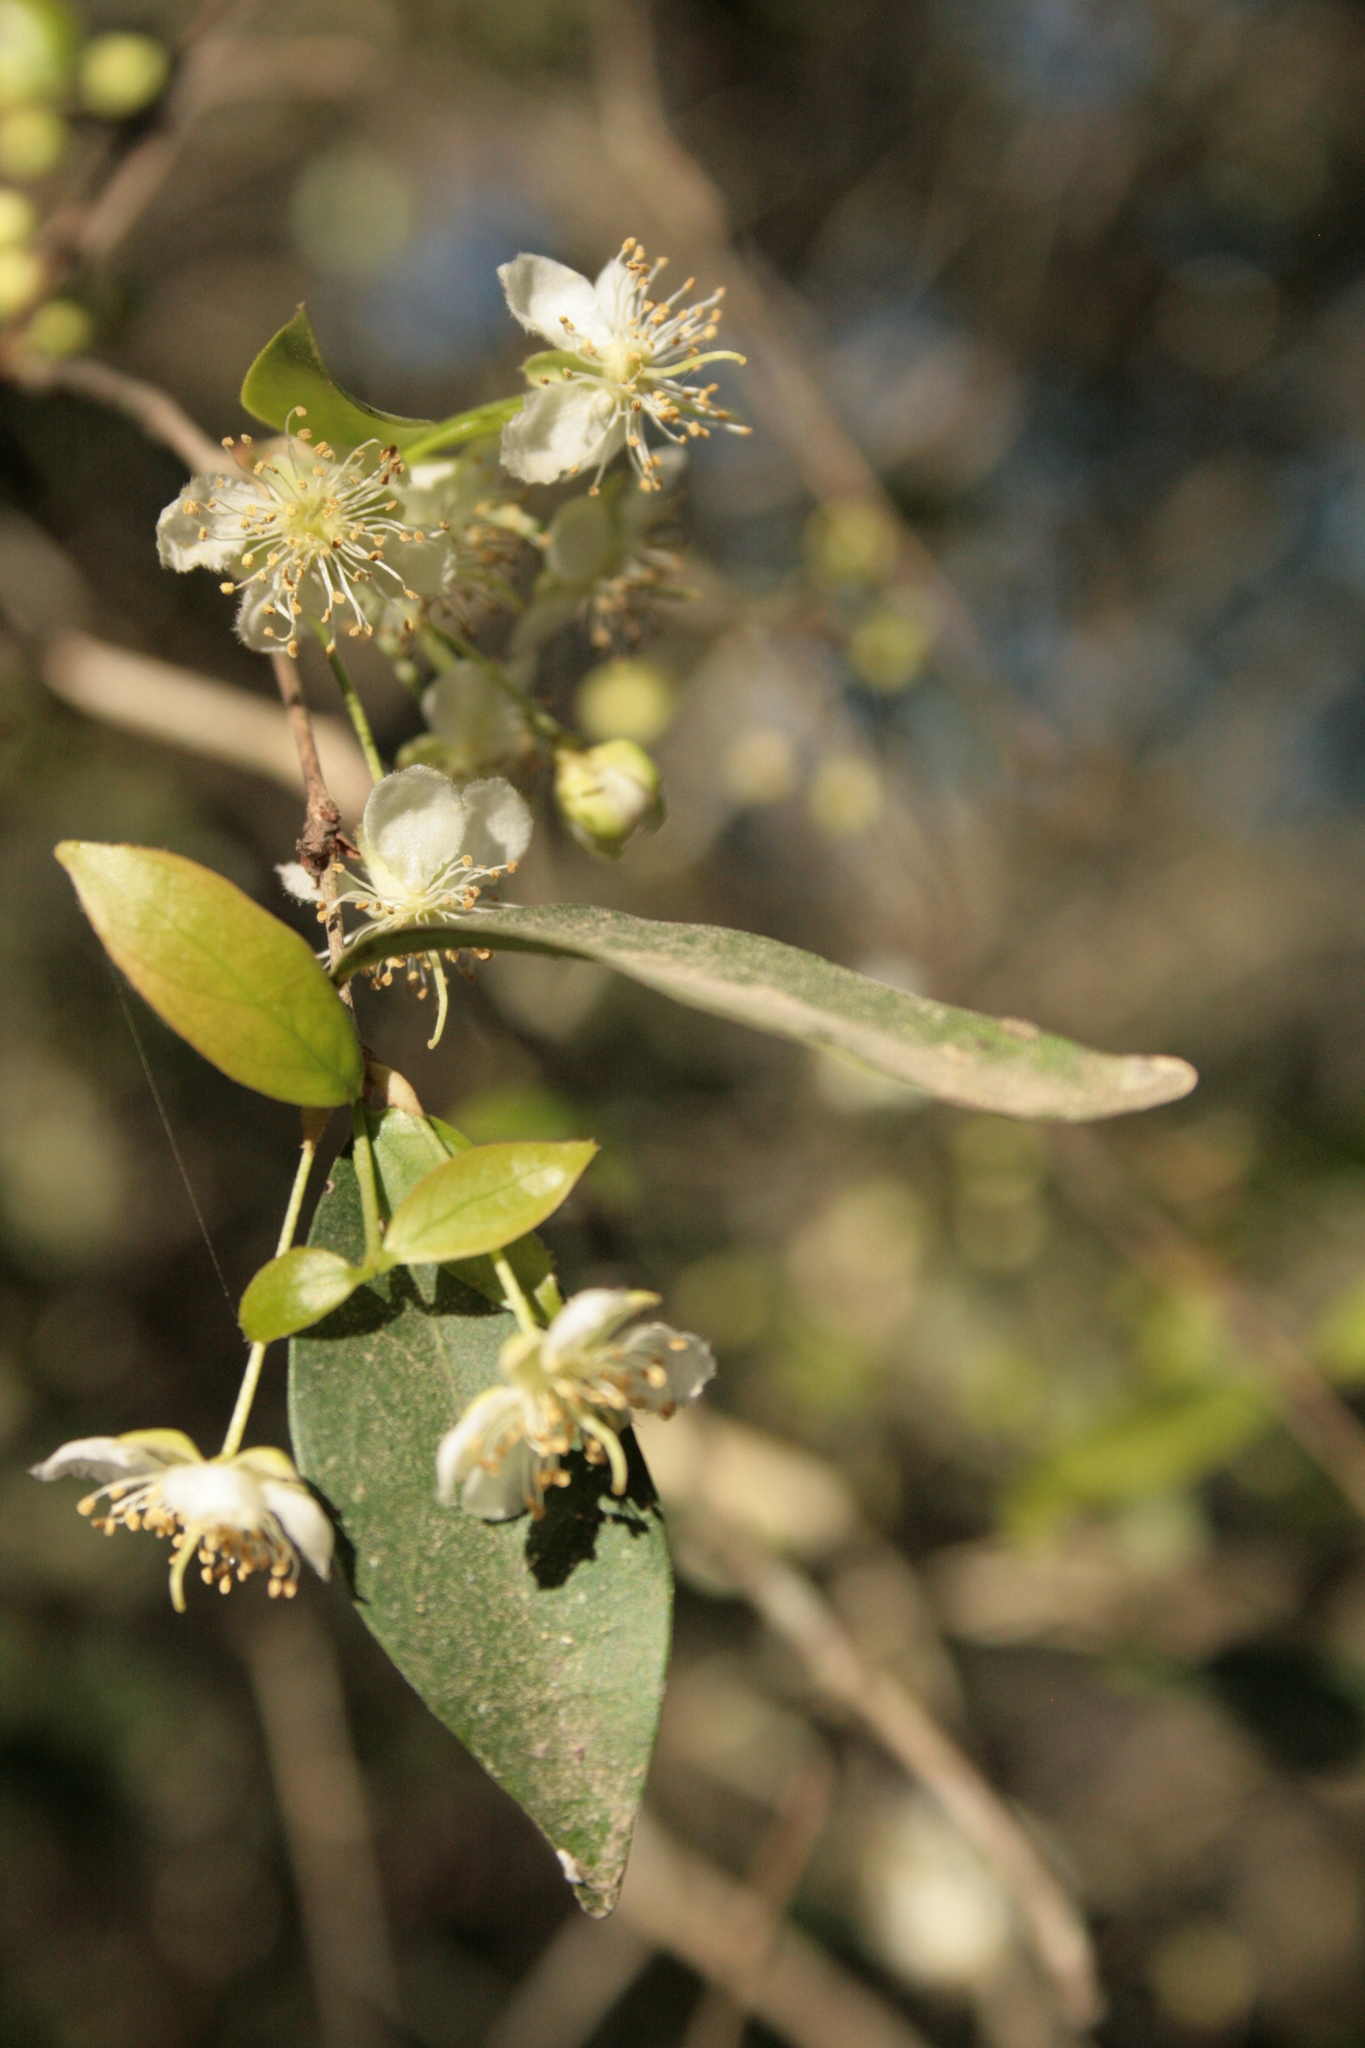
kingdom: Plantae
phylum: Tracheophyta
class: Magnoliopsida
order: Myrtales
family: Myrtaceae
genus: Eugenia
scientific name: Eugenia uniflora
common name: Surinam cherry
